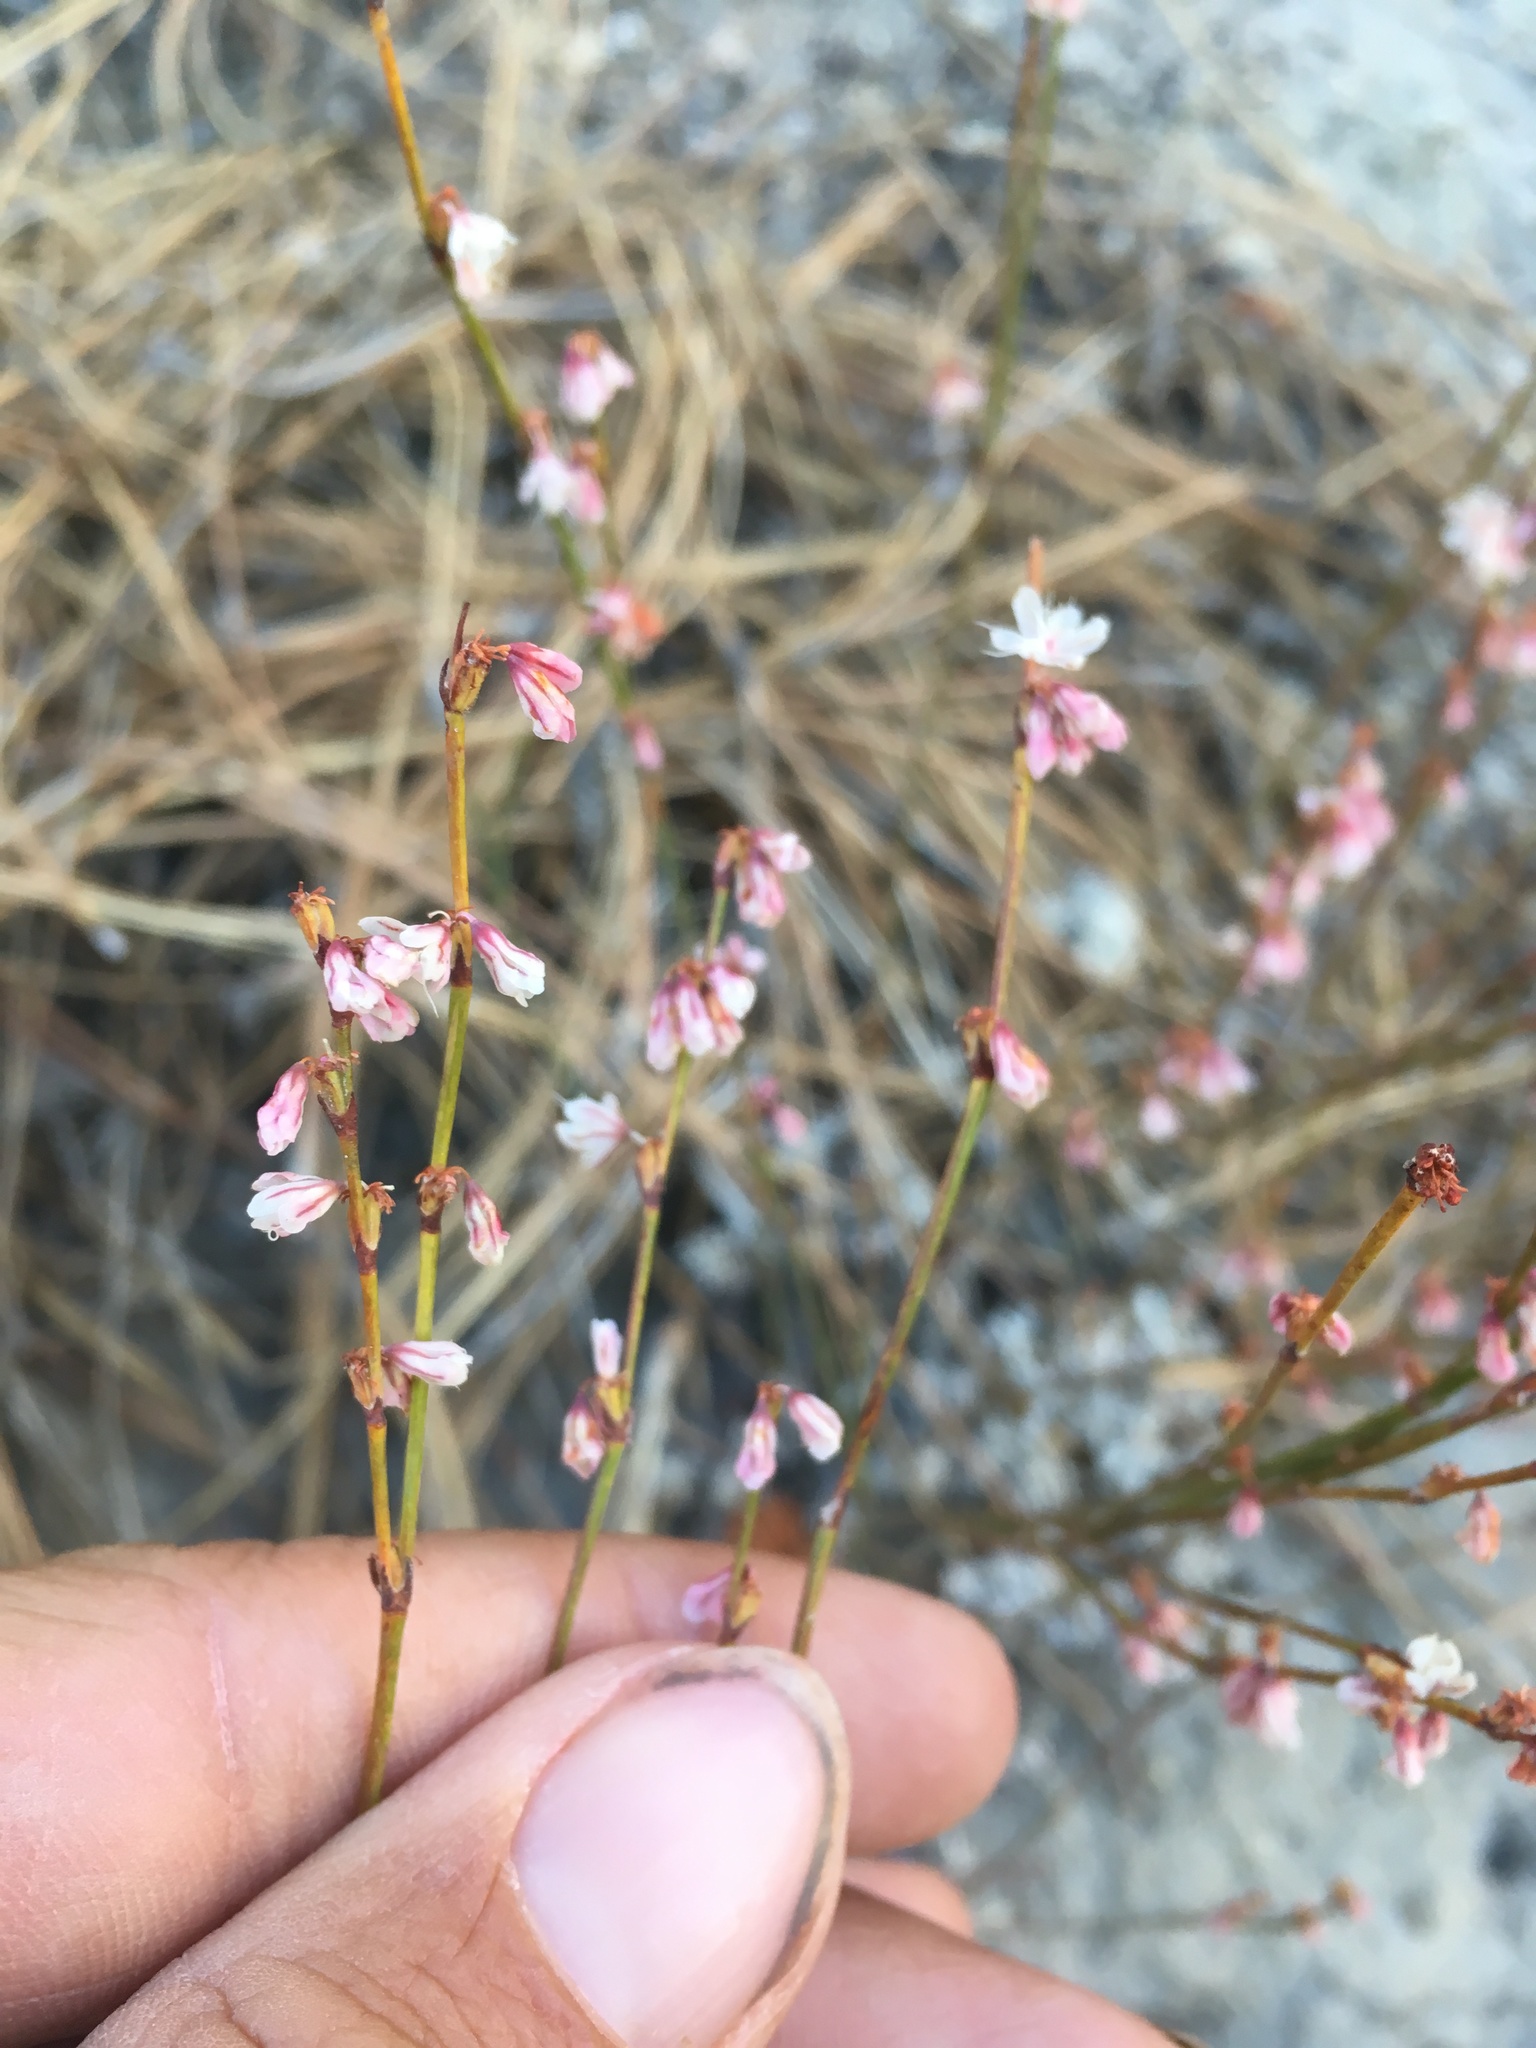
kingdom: Plantae
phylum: Tracheophyta
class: Magnoliopsida
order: Caryophyllales
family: Polygonaceae
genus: Eriogonum
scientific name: Eriogonum wrightii
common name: Bastard-sage
